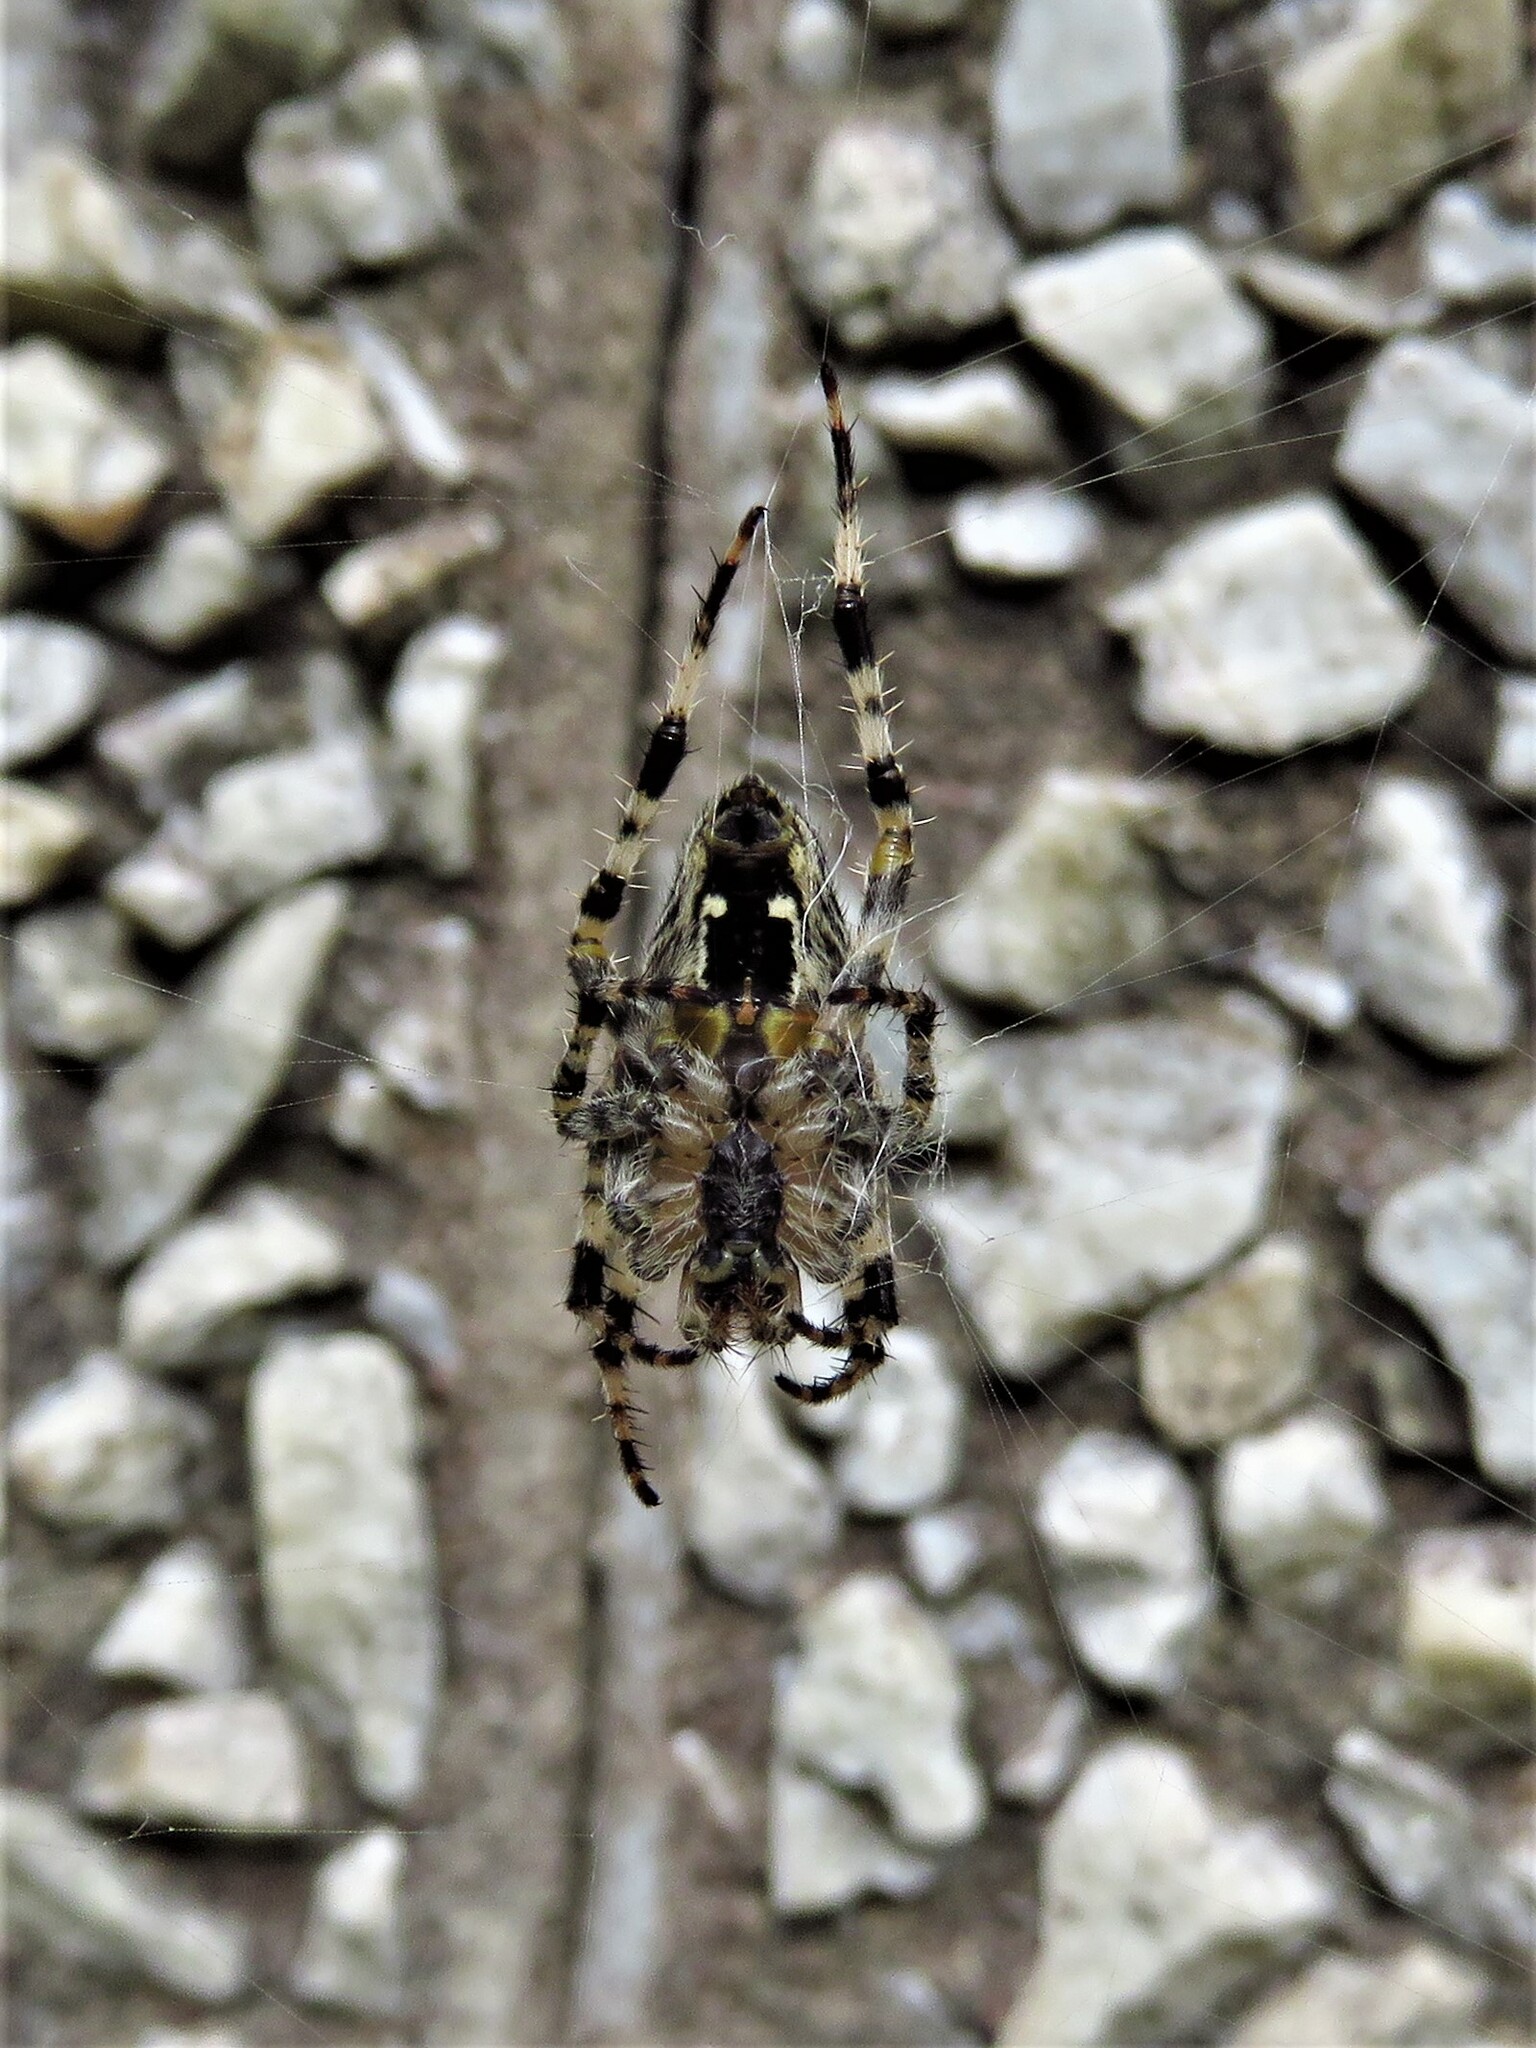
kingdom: Animalia
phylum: Arthropoda
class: Arachnida
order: Araneae
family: Araneidae
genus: Araneus
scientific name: Araneus diadematus
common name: Cross orbweaver
